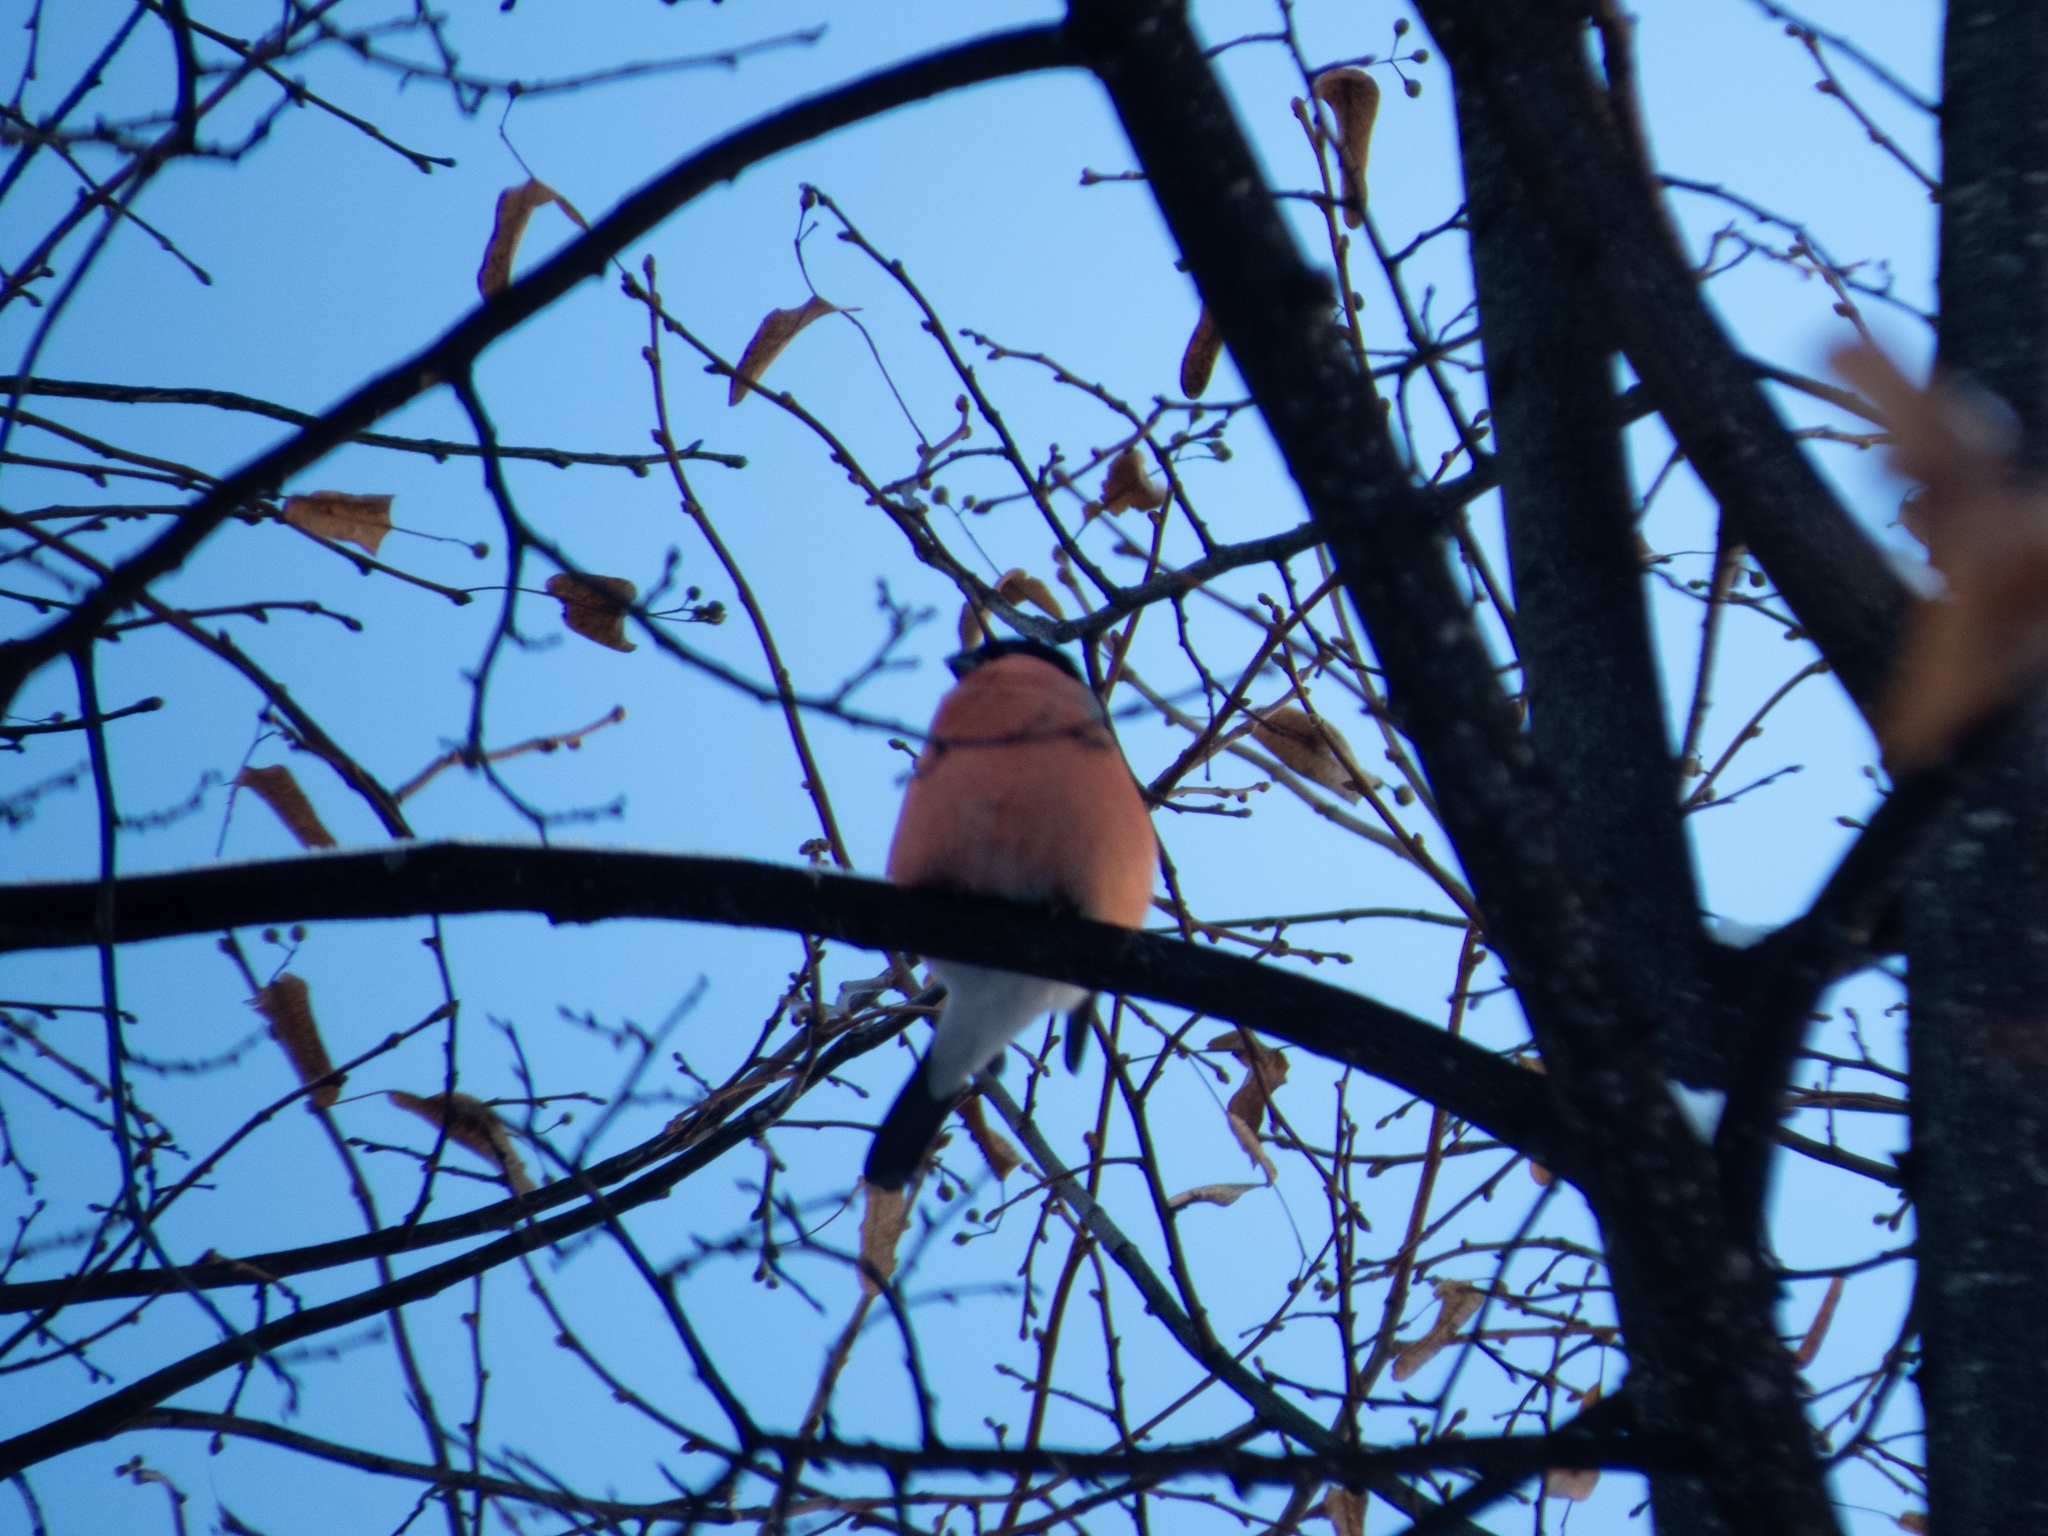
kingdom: Animalia
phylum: Chordata
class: Aves
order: Passeriformes
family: Fringillidae
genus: Pyrrhula
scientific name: Pyrrhula pyrrhula
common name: Eurasian bullfinch
